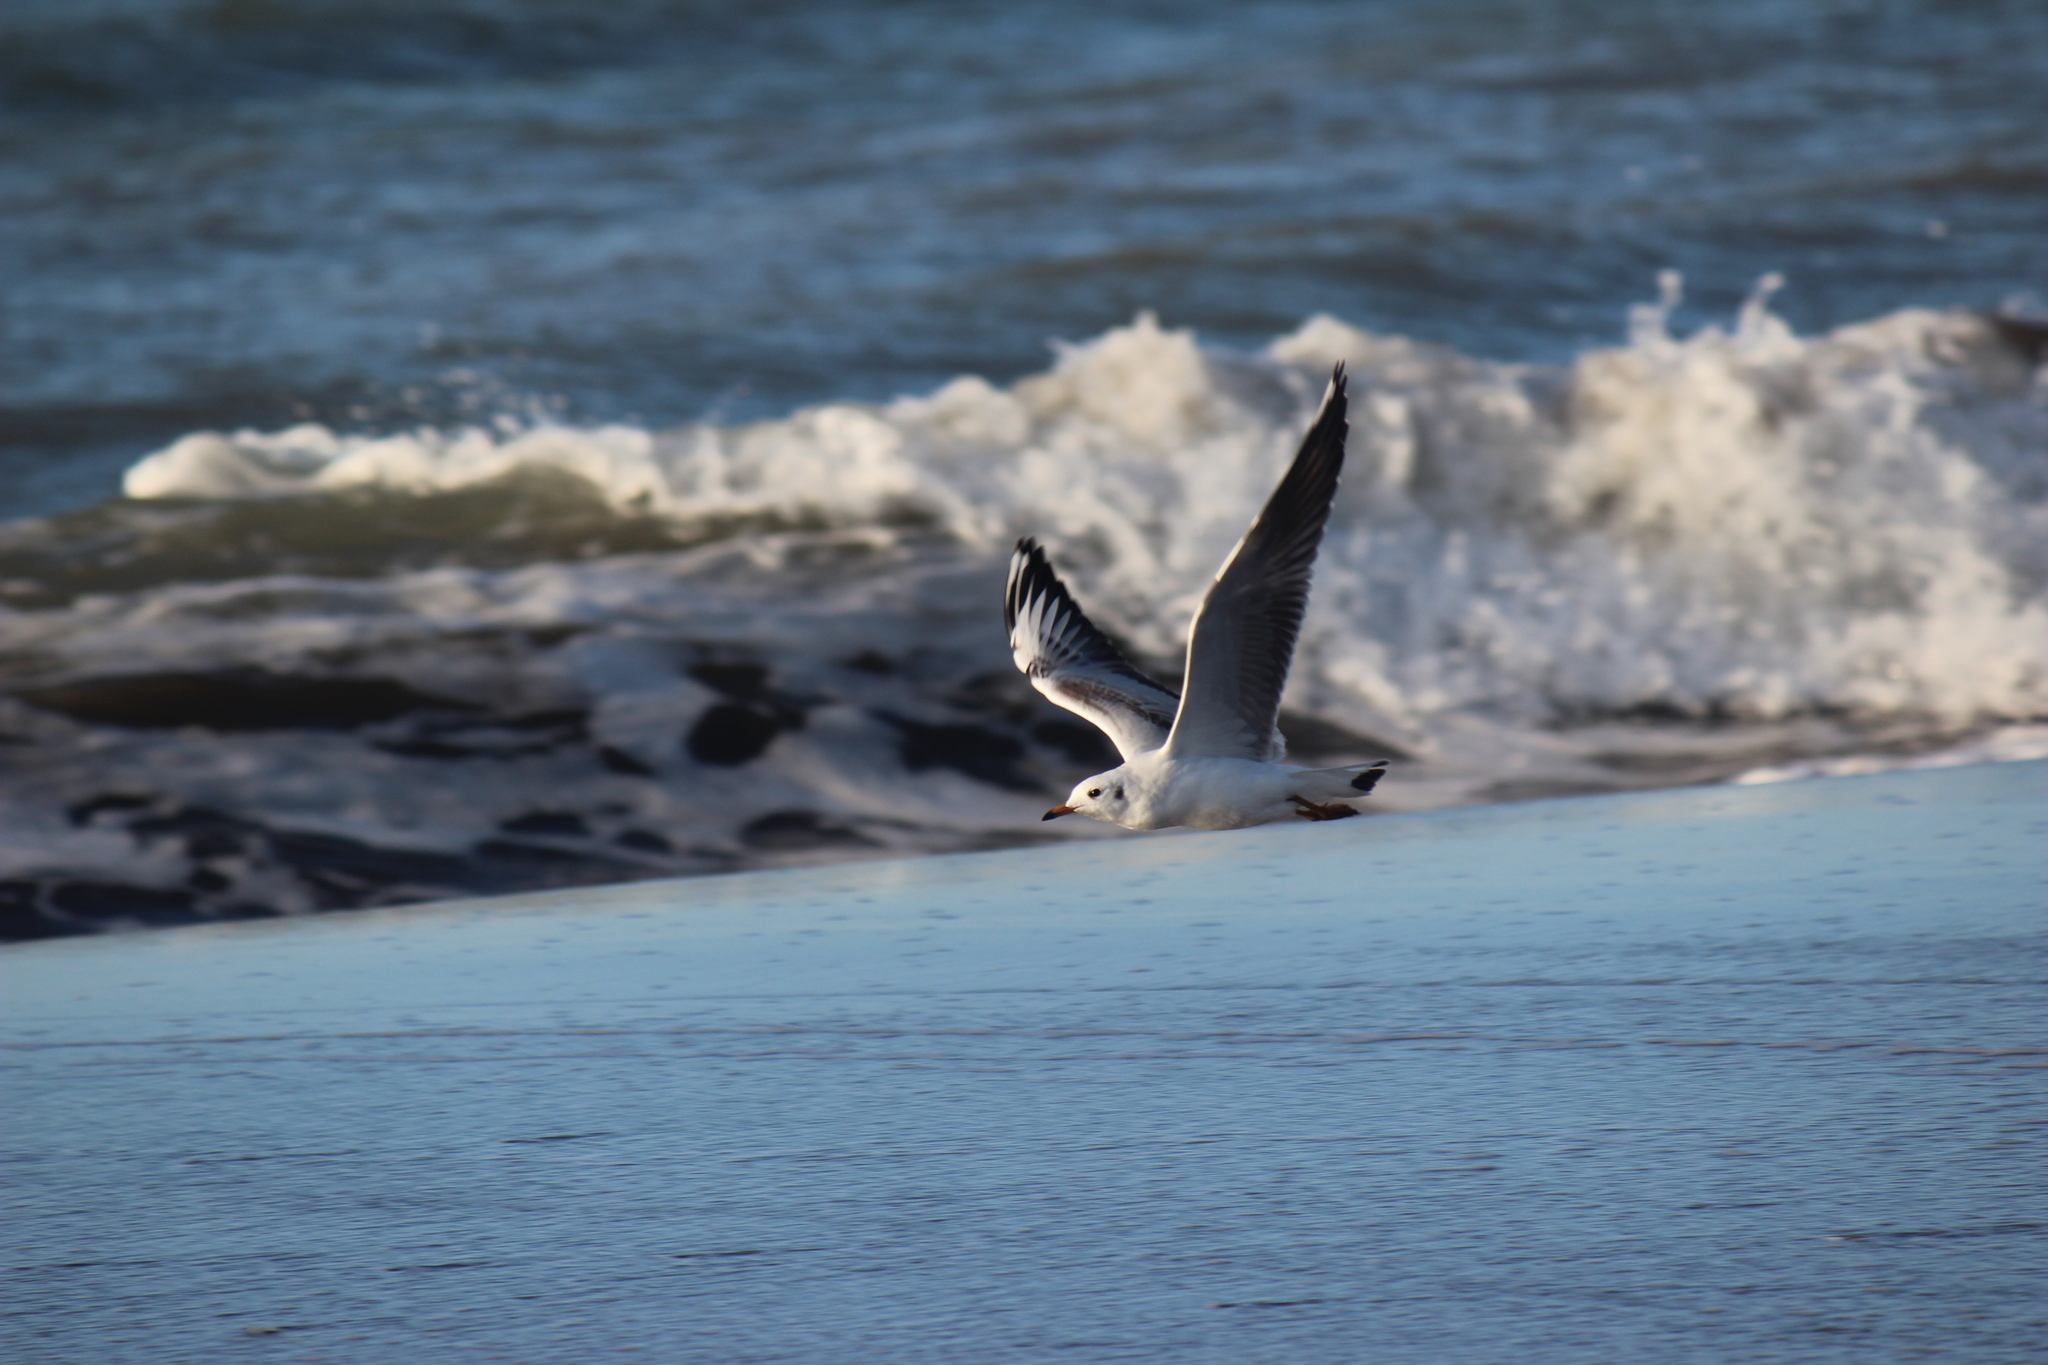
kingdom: Animalia
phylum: Chordata
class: Aves
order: Charadriiformes
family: Laridae
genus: Chroicocephalus
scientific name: Chroicocephalus maculipennis
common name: Brown-hooded gull
